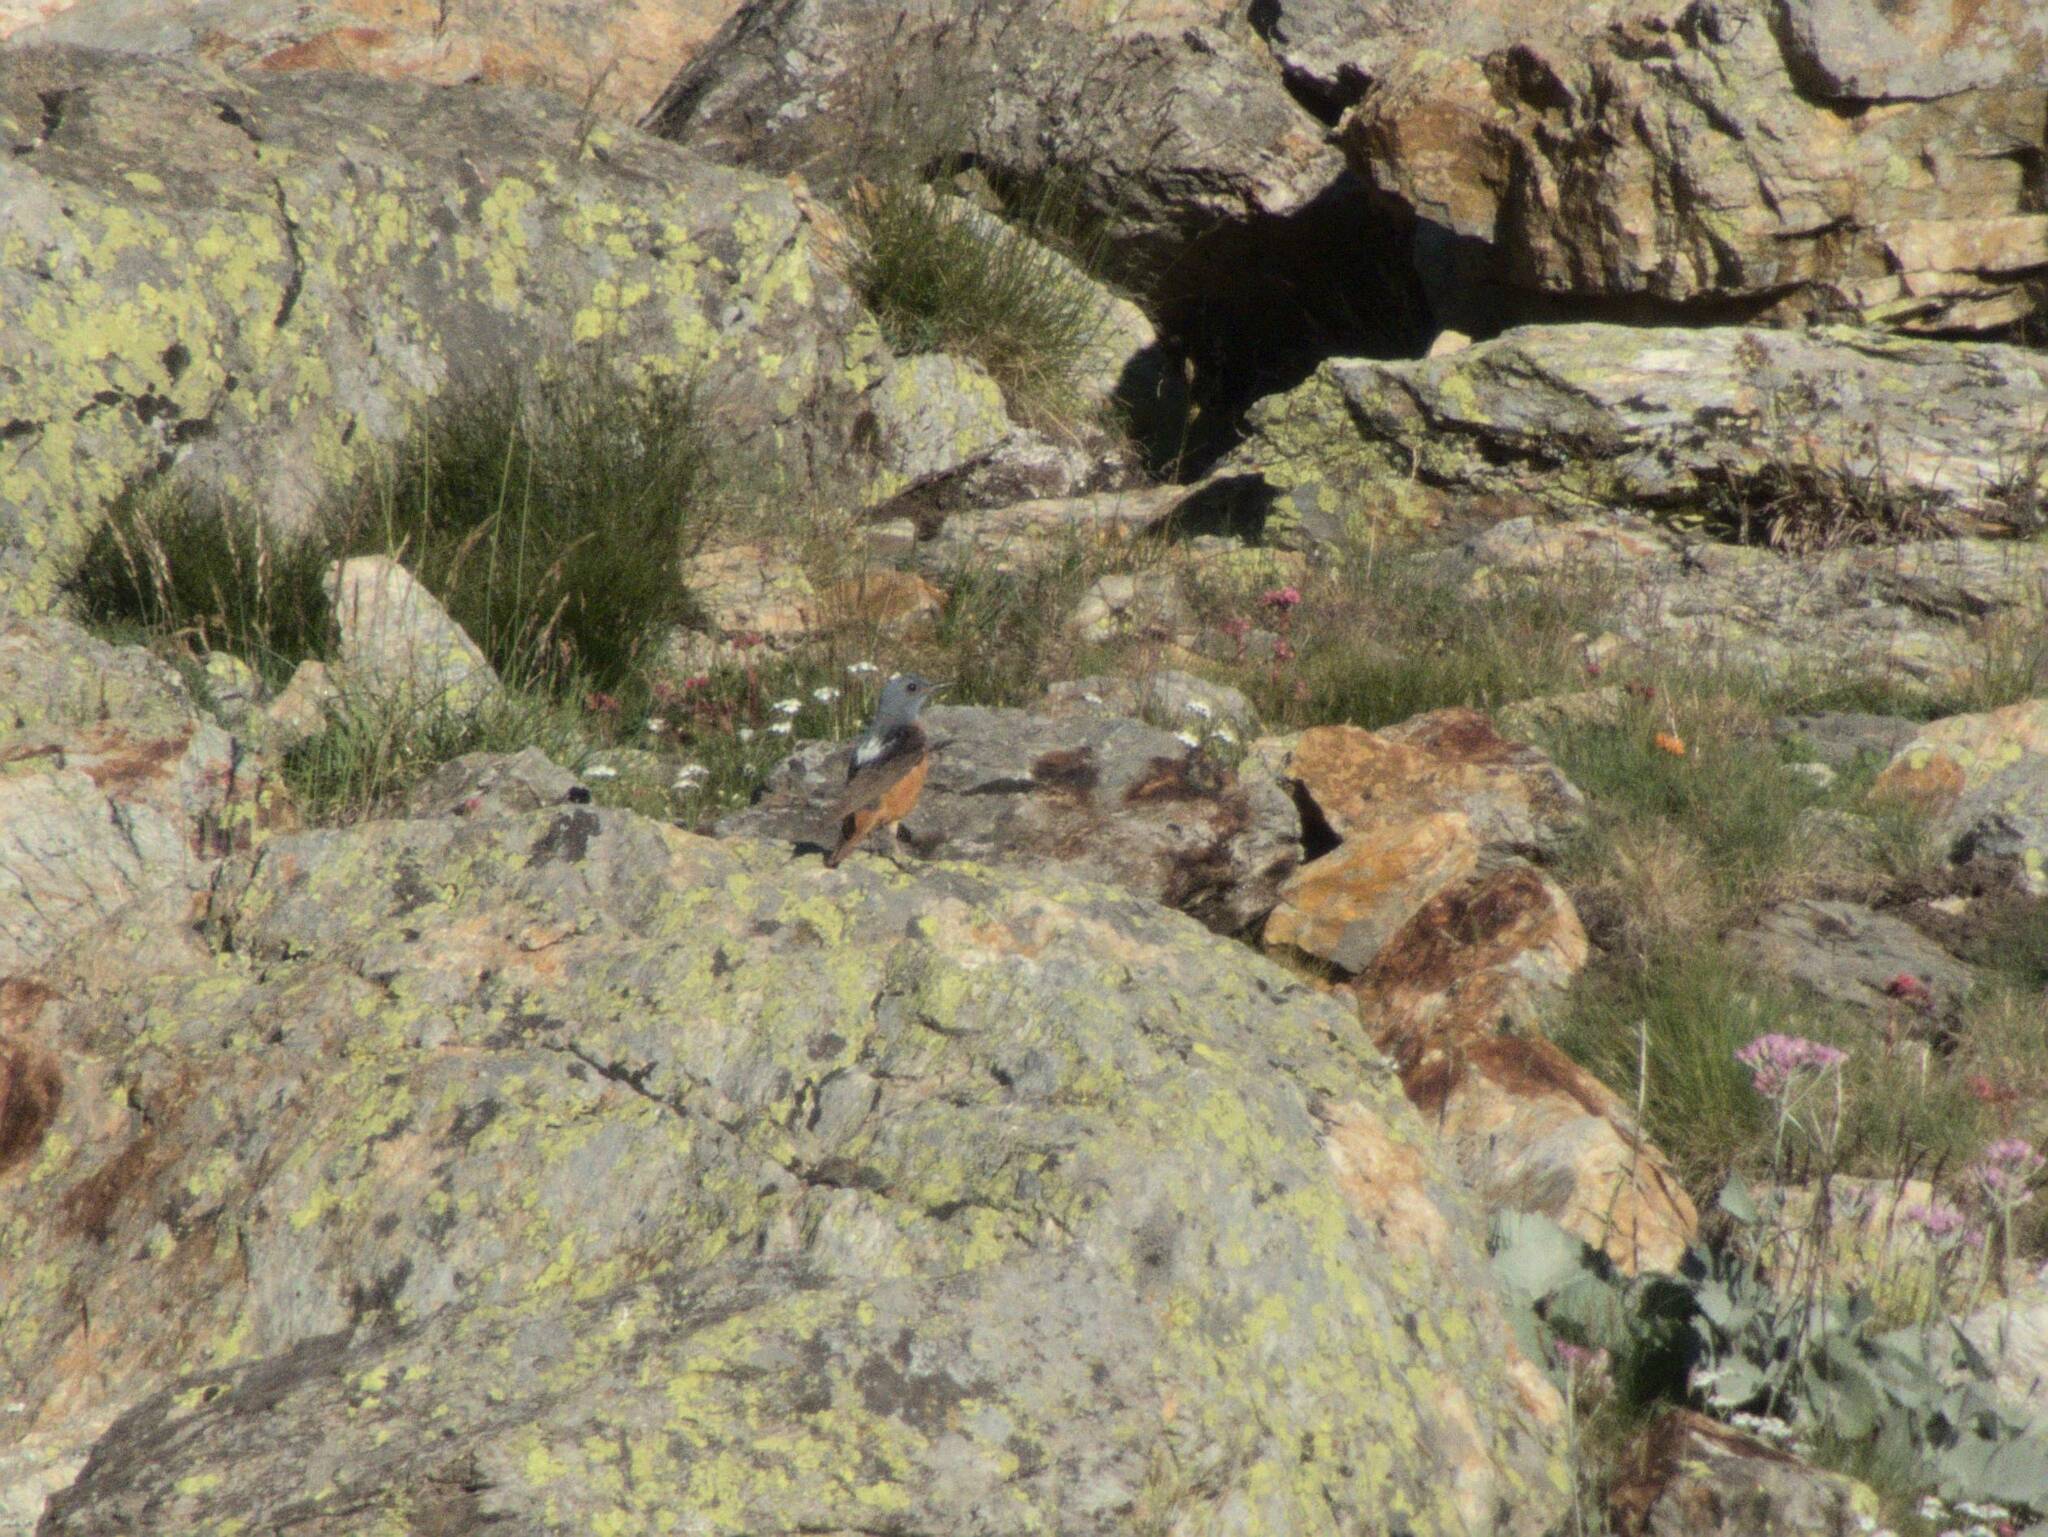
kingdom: Animalia
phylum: Chordata
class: Aves
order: Passeriformes
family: Muscicapidae
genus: Monticola
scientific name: Monticola saxatilis
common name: Rufous-tailed rock thrush
